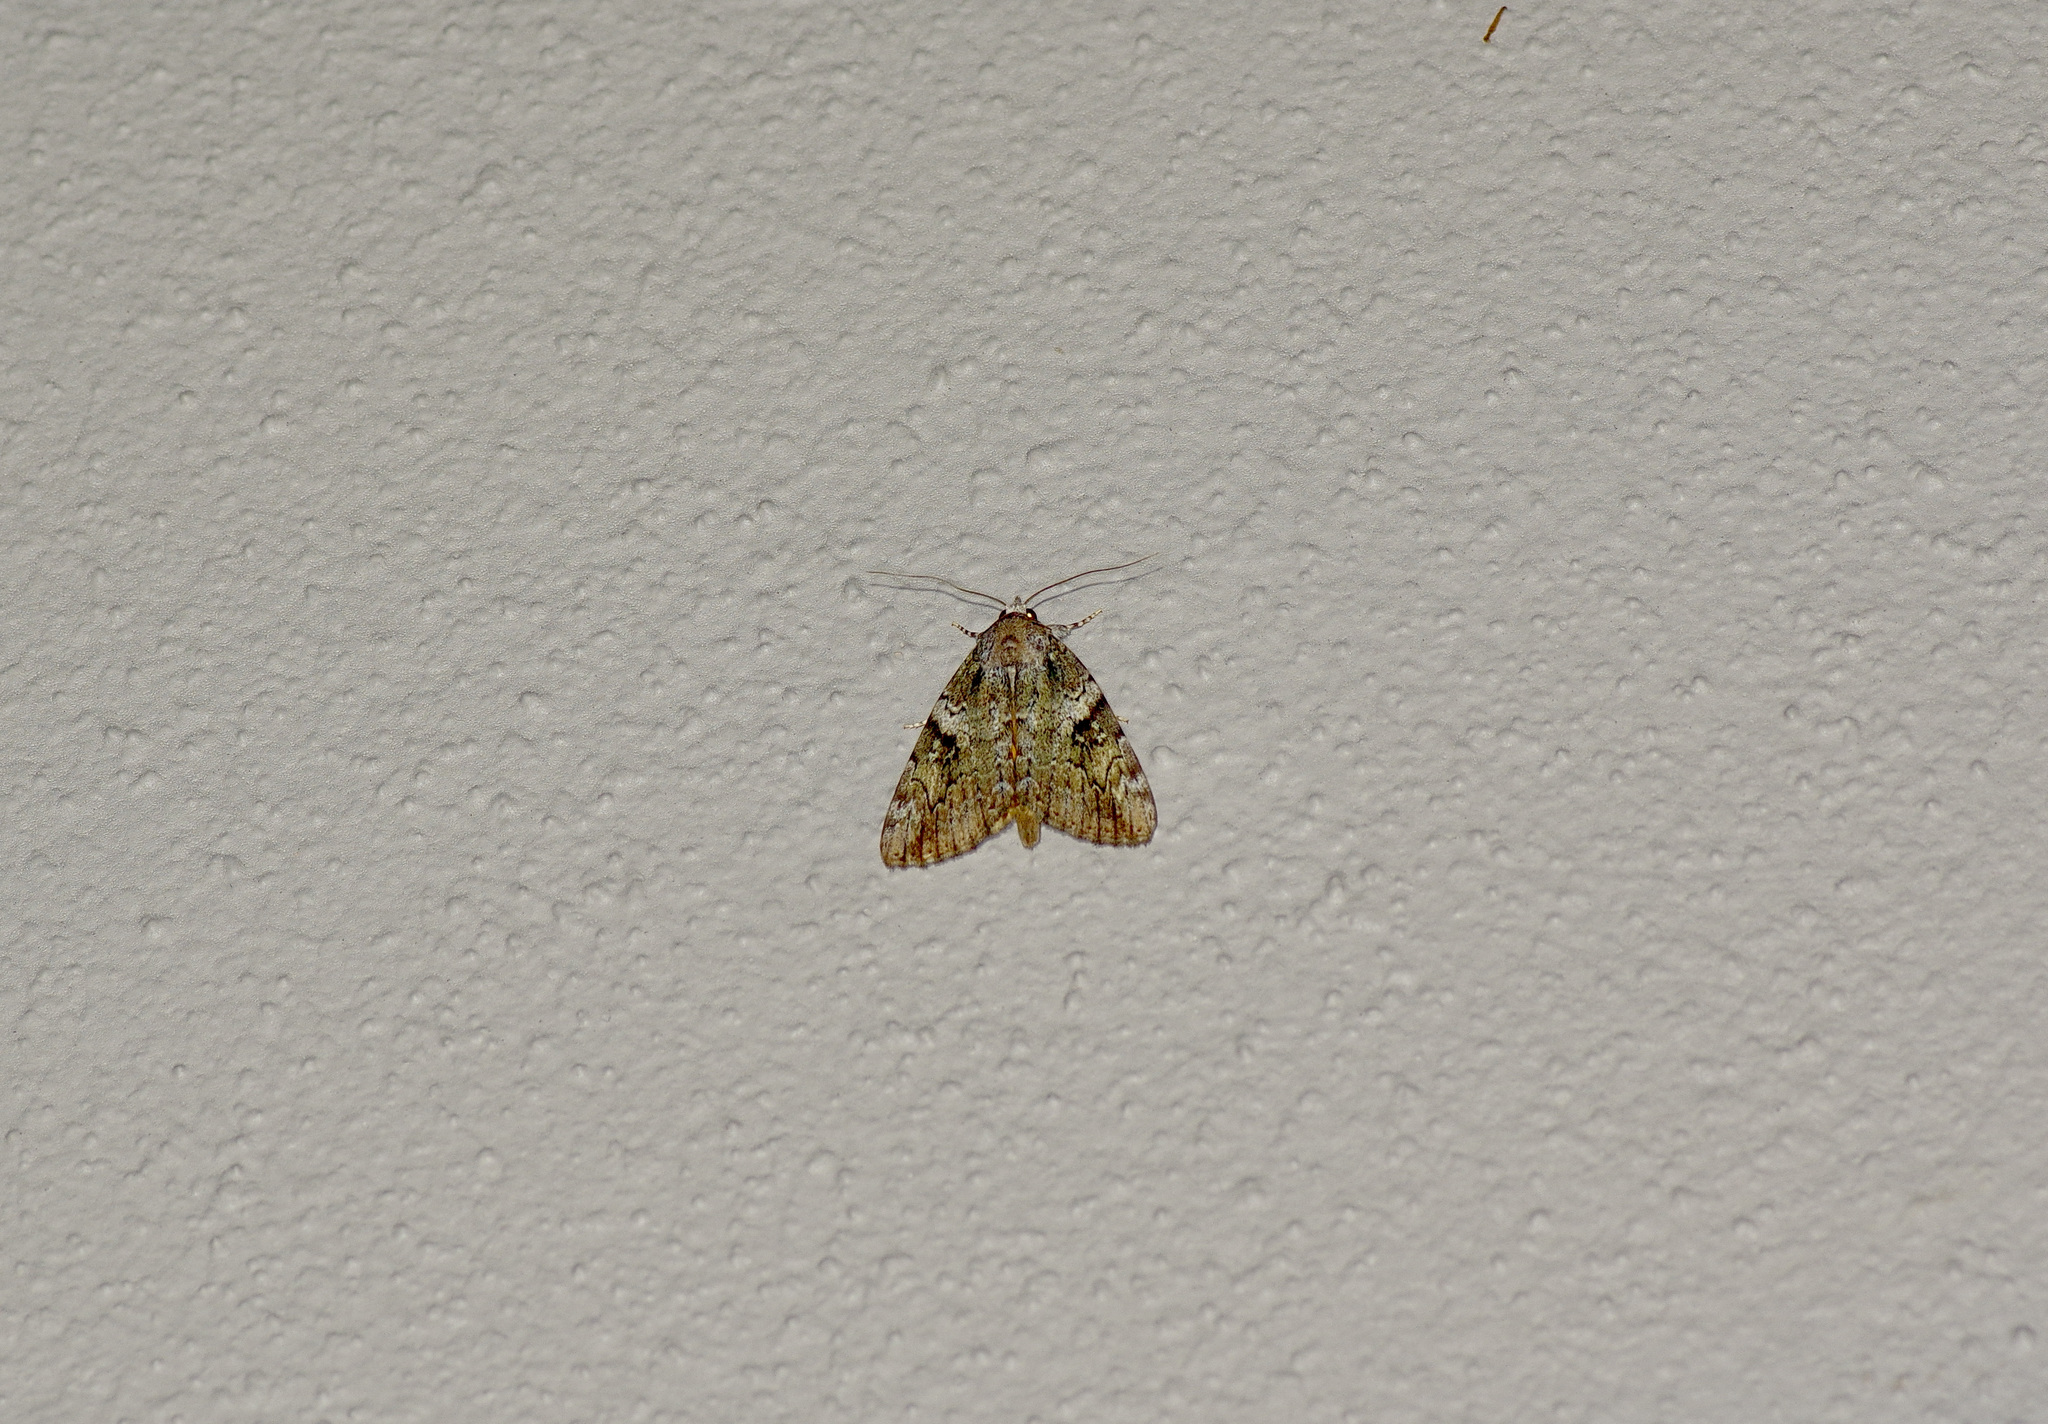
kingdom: Animalia
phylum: Arthropoda
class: Insecta
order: Lepidoptera
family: Erebidae
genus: Catocala
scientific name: Catocala micronympha
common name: Little nymph underwing
